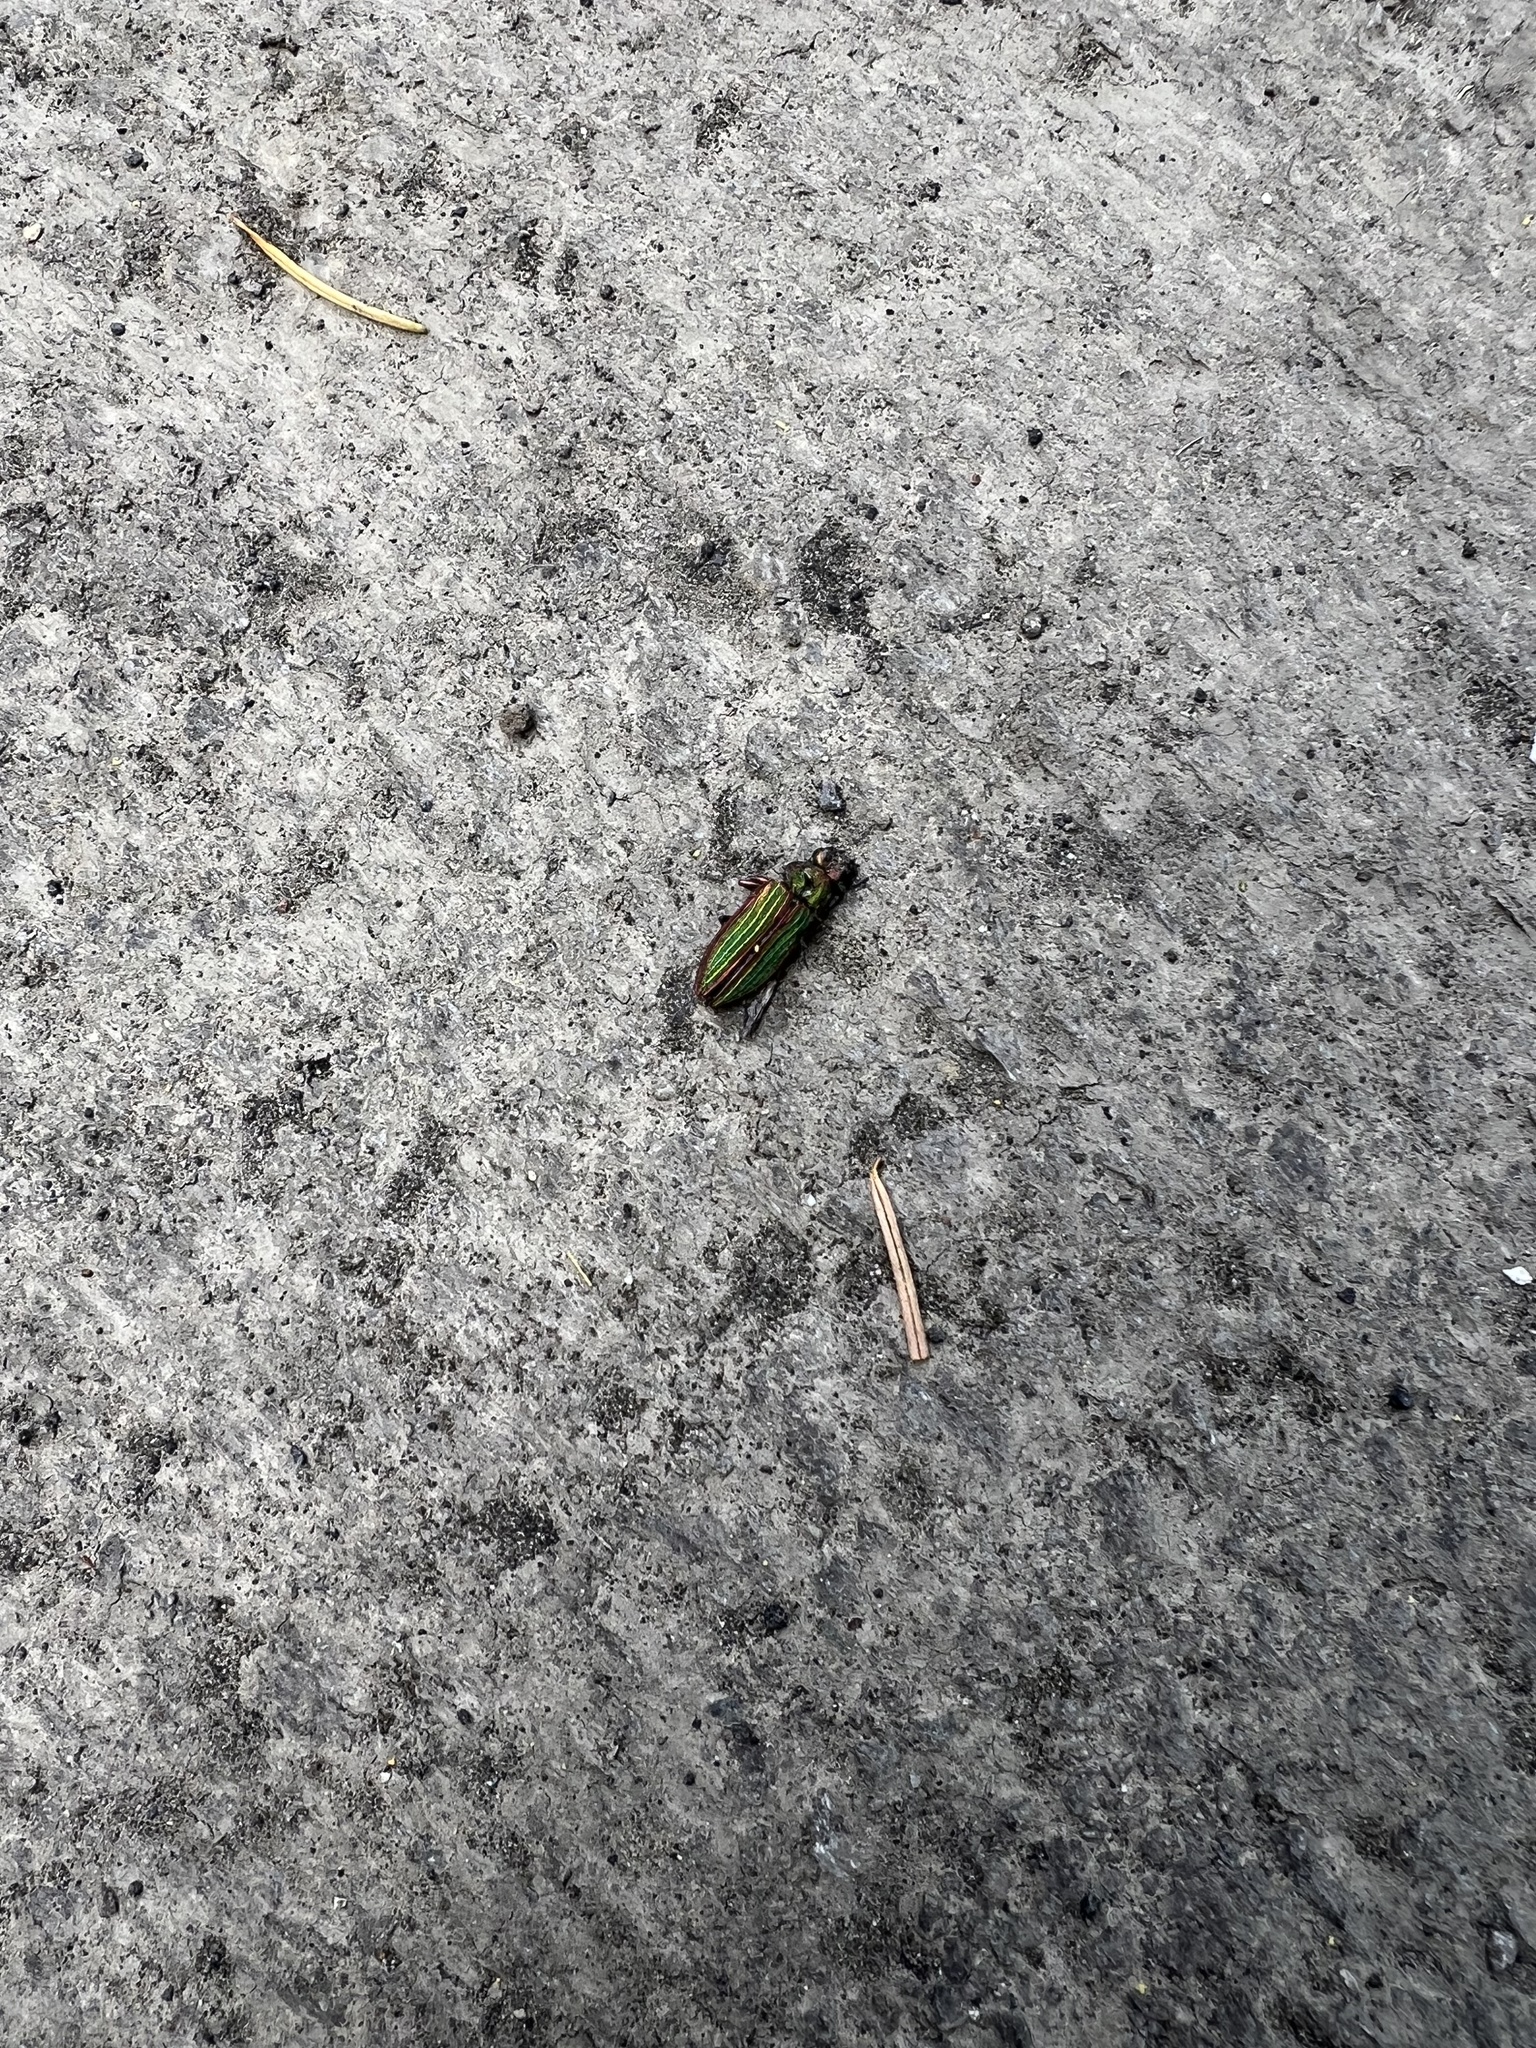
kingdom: Animalia
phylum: Arthropoda
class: Insecta
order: Coleoptera
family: Buprestidae
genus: Buprestis
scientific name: Buprestis aurulenta
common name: Golden buprestid
